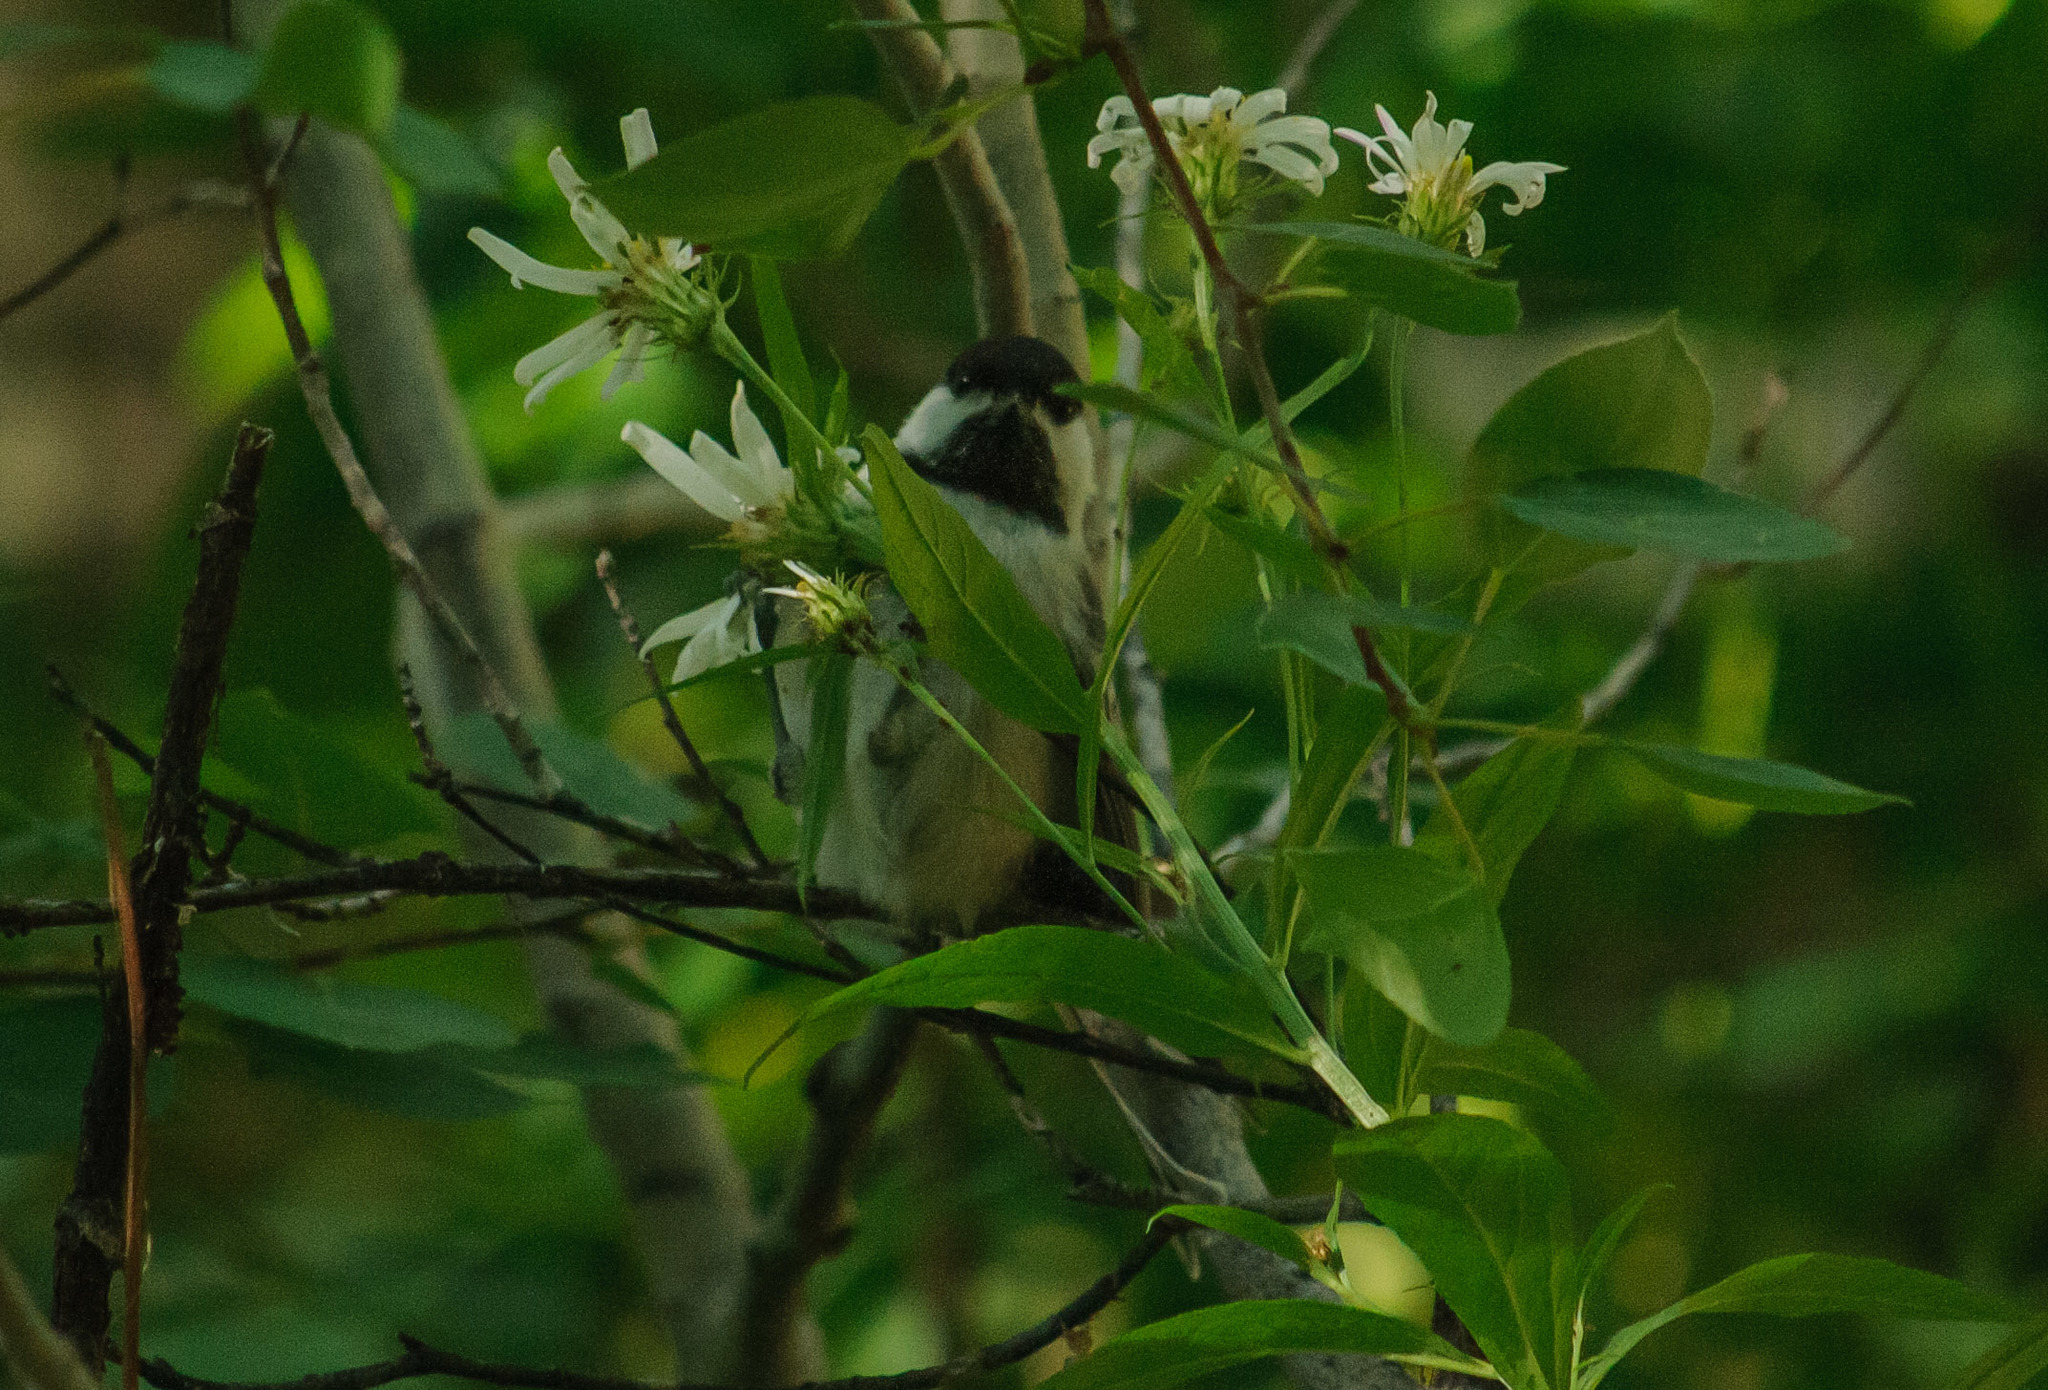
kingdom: Animalia
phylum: Chordata
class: Aves
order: Passeriformes
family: Paridae
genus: Poecile
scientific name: Poecile atricapillus
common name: Black-capped chickadee
